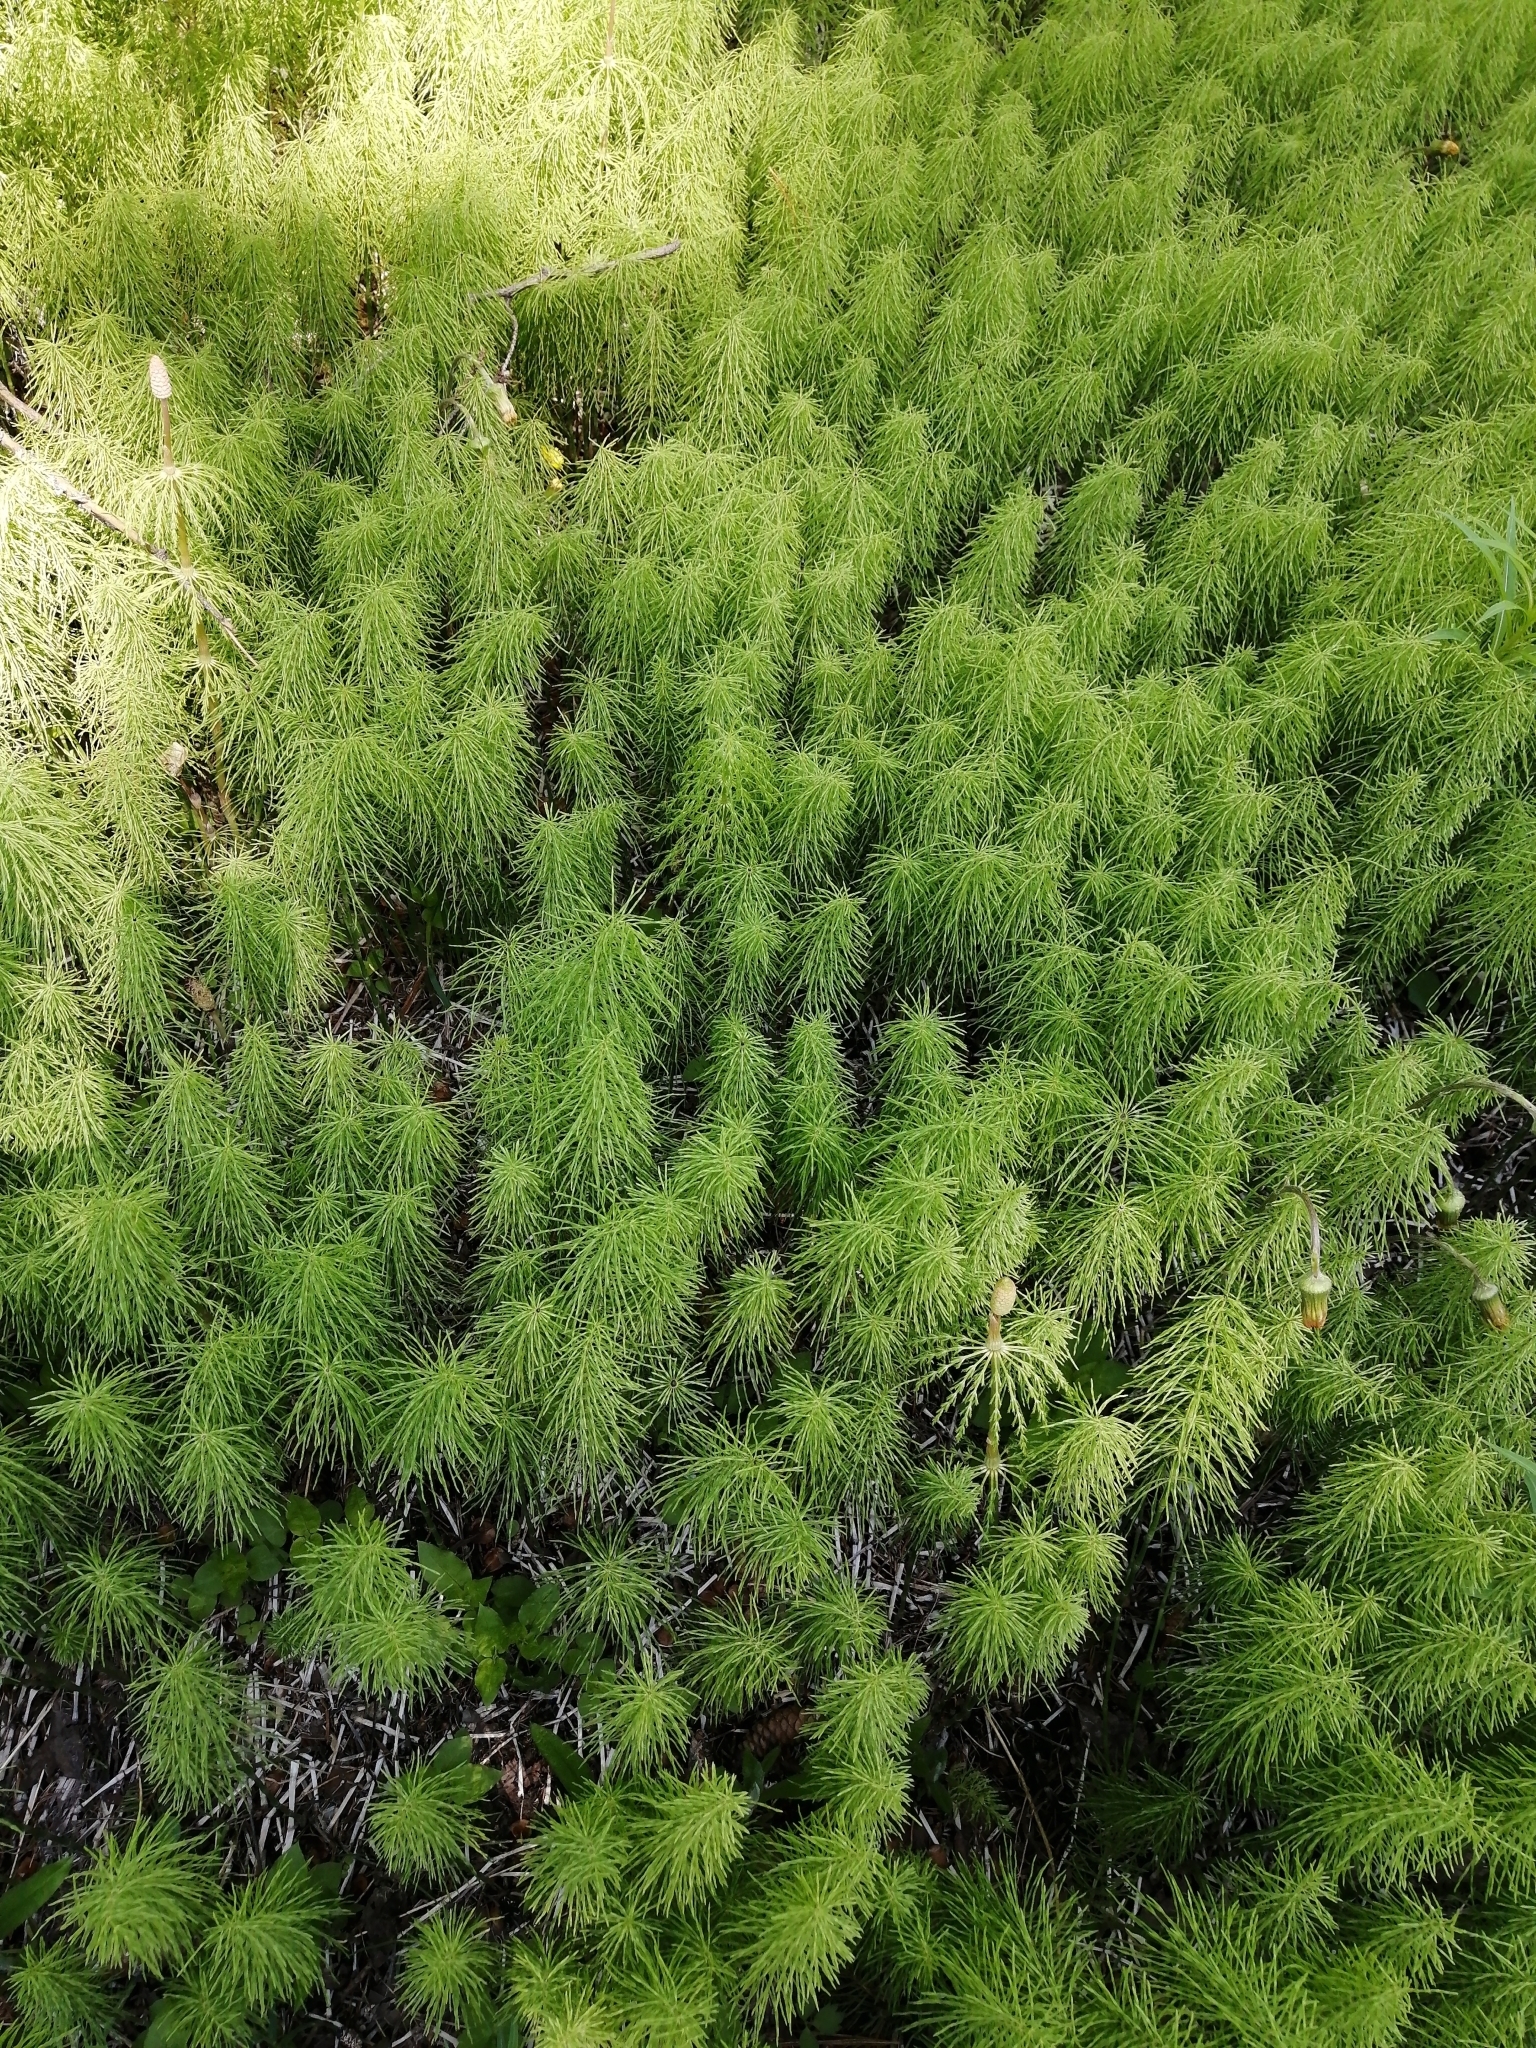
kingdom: Plantae
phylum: Tracheophyta
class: Polypodiopsida
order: Equisetales
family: Equisetaceae
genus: Equisetum
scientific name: Equisetum sylvaticum
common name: Wood horsetail
